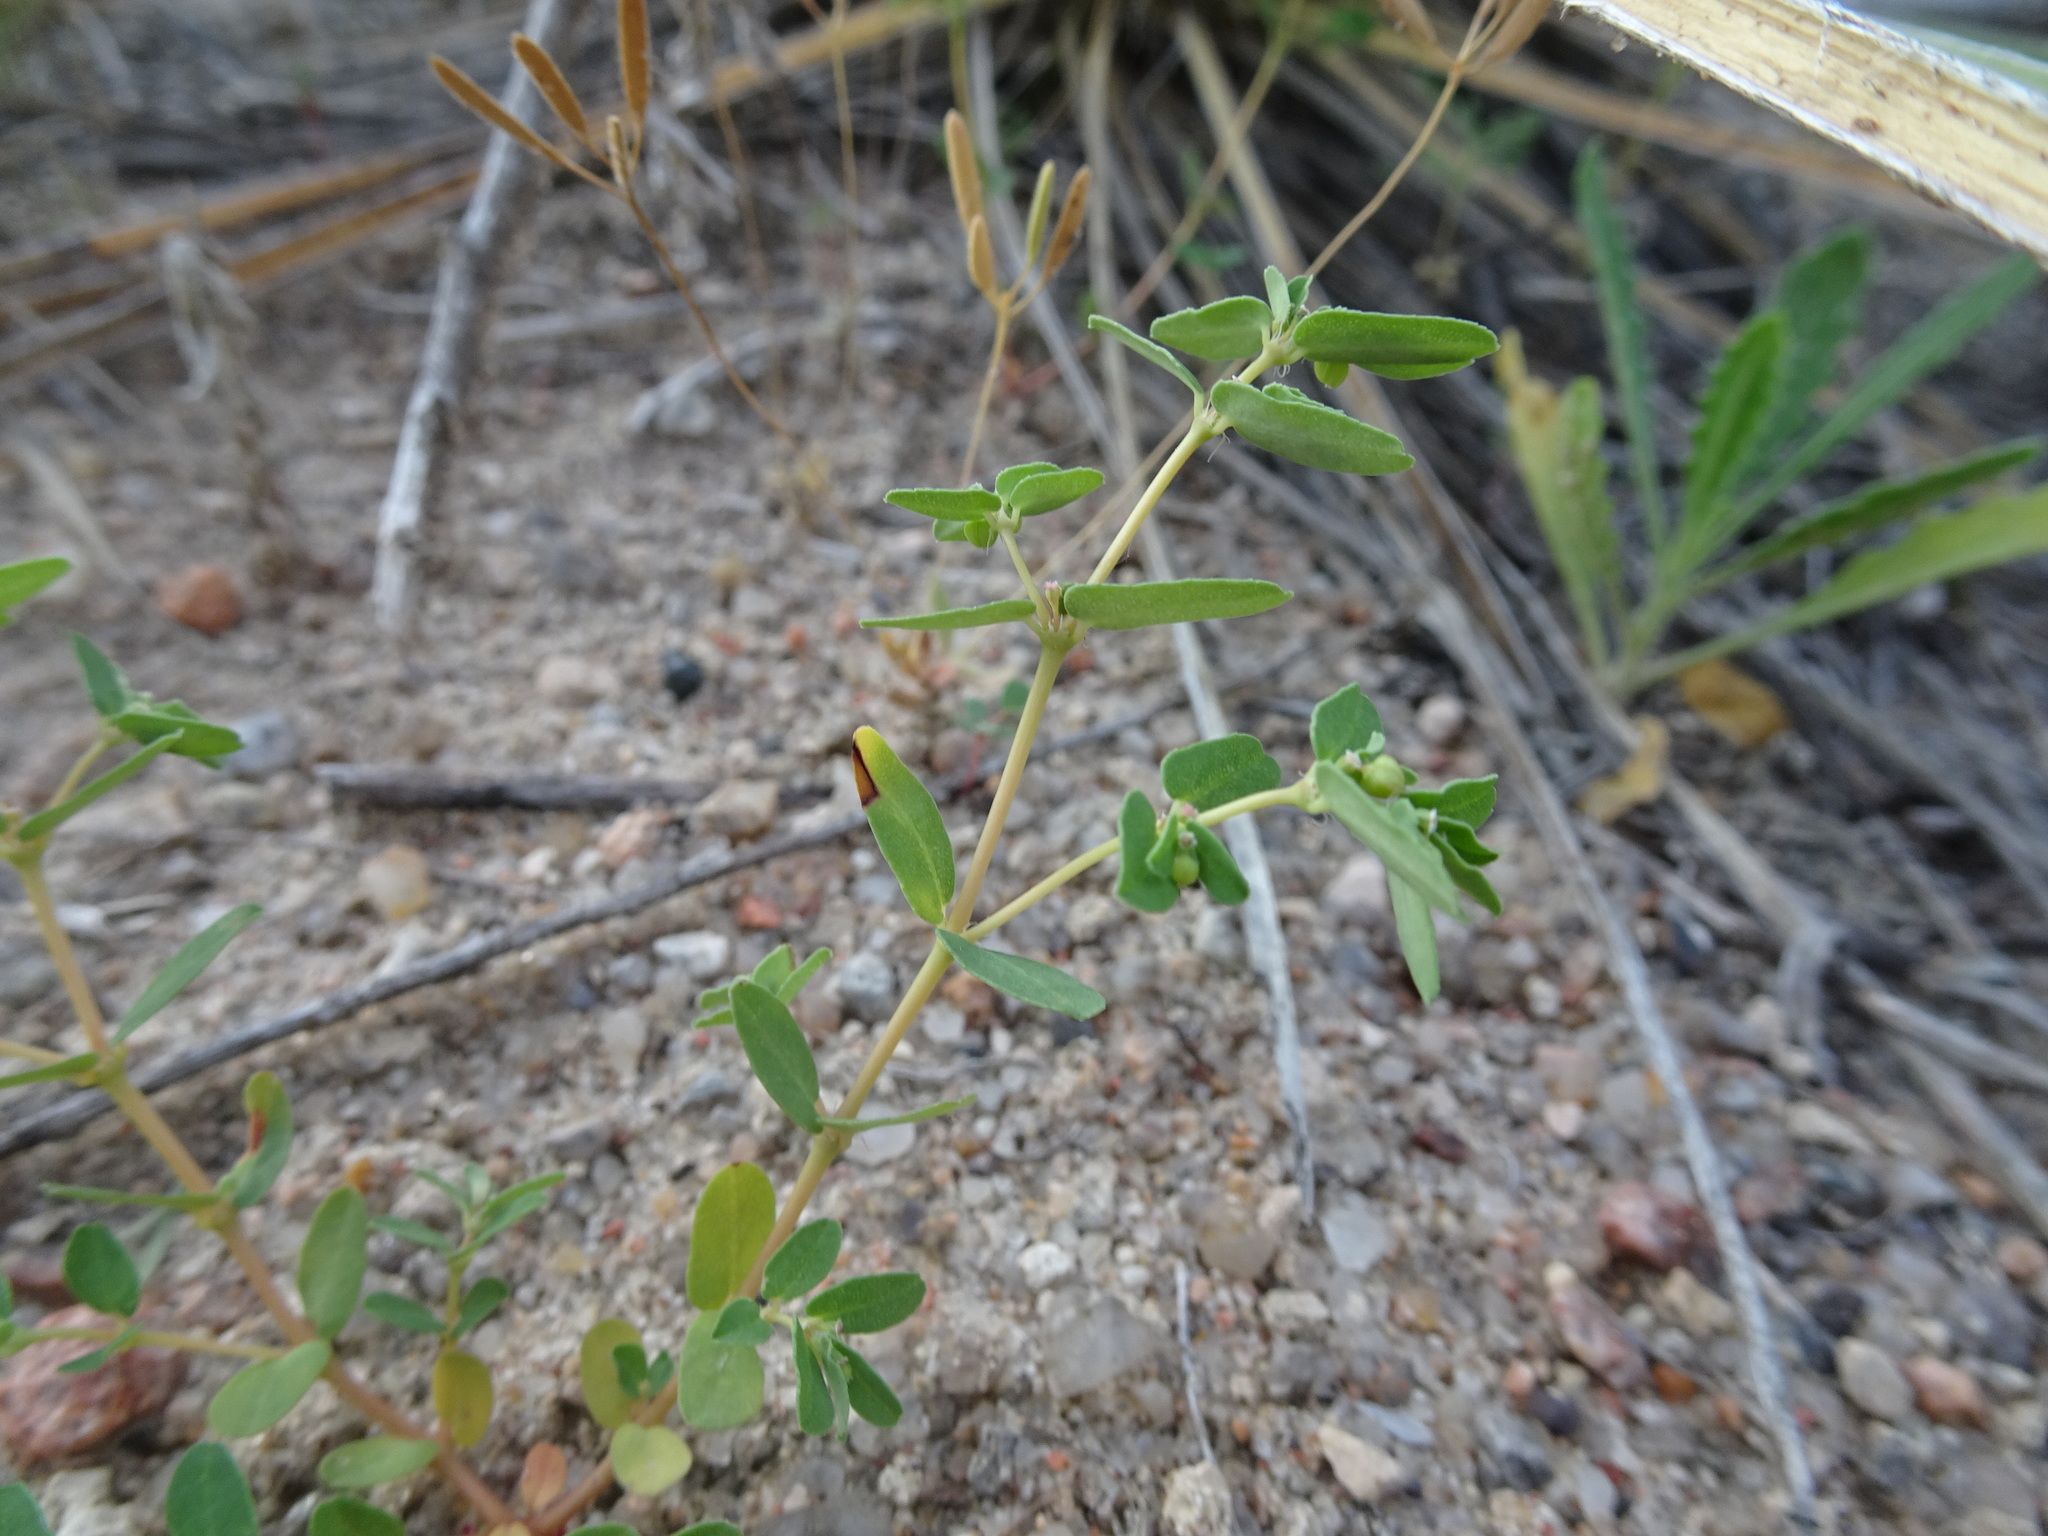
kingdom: Plantae
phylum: Tracheophyta
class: Magnoliopsida
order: Malpighiales
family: Euphorbiaceae
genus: Euphorbia
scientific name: Euphorbia glyptosperma
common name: Corrugate-seeded spurge
